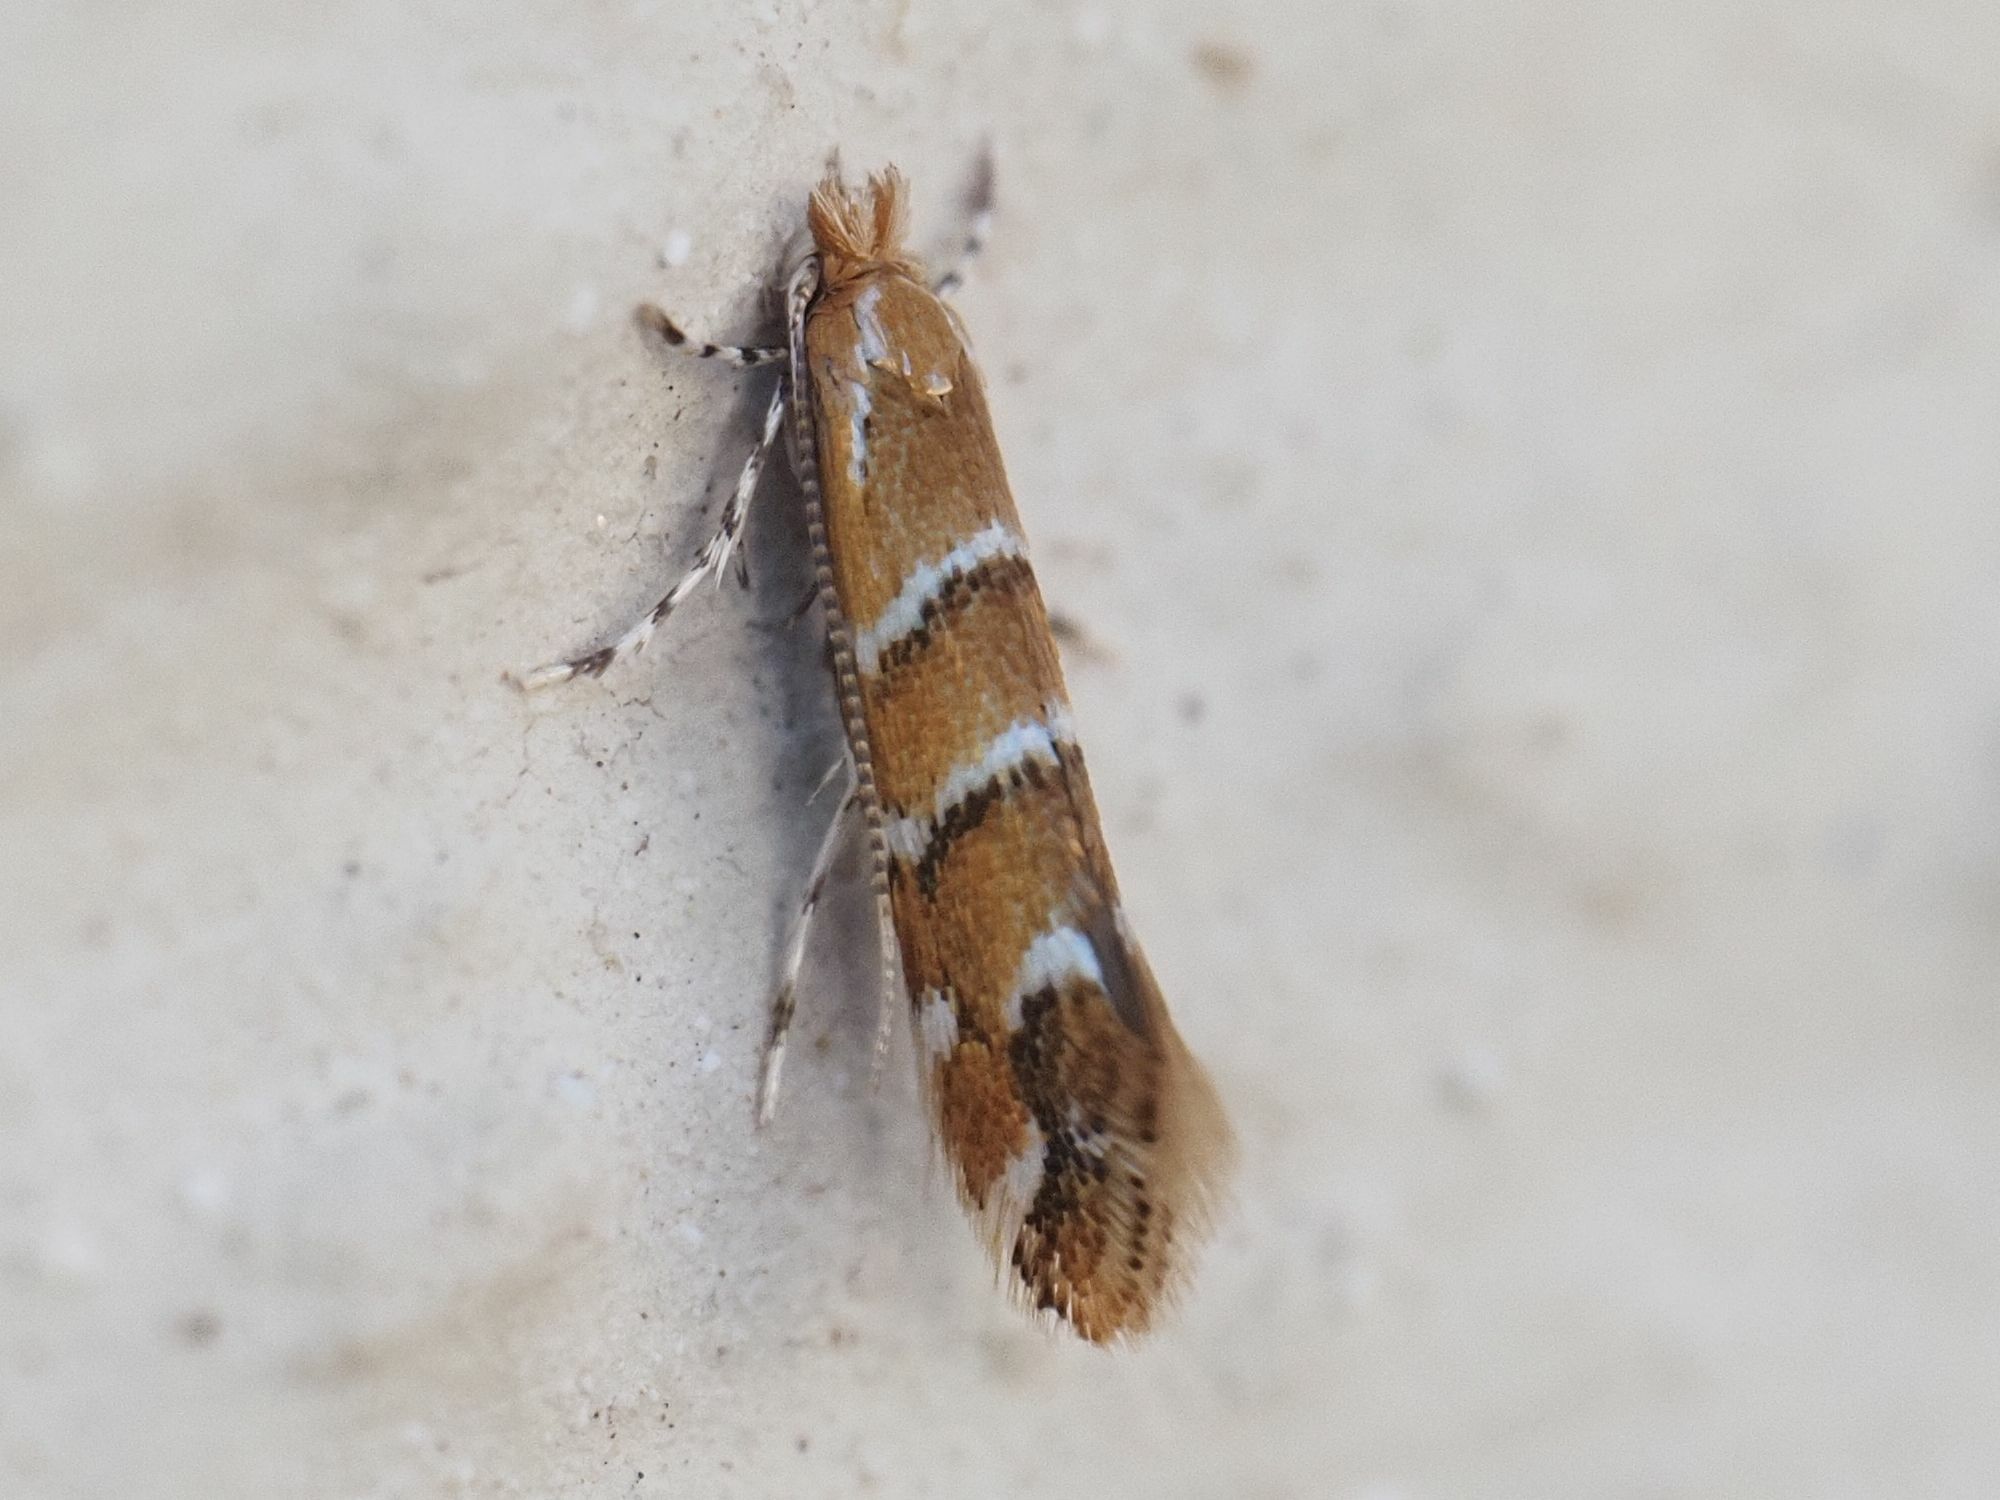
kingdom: Animalia
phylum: Arthropoda
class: Insecta
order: Lepidoptera
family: Gracillariidae
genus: Cameraria
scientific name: Cameraria ohridella
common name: Horse-chestnut leaf-miner
